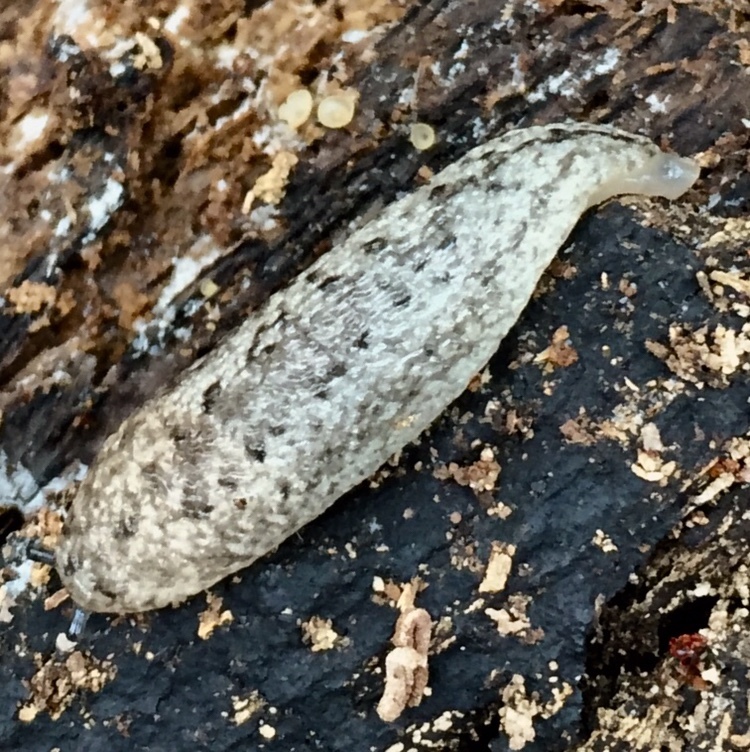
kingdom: Animalia
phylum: Mollusca
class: Gastropoda
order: Stylommatophora
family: Philomycidae
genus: Philomycus
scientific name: Philomycus carolinianus
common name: Carolina mantleslug
